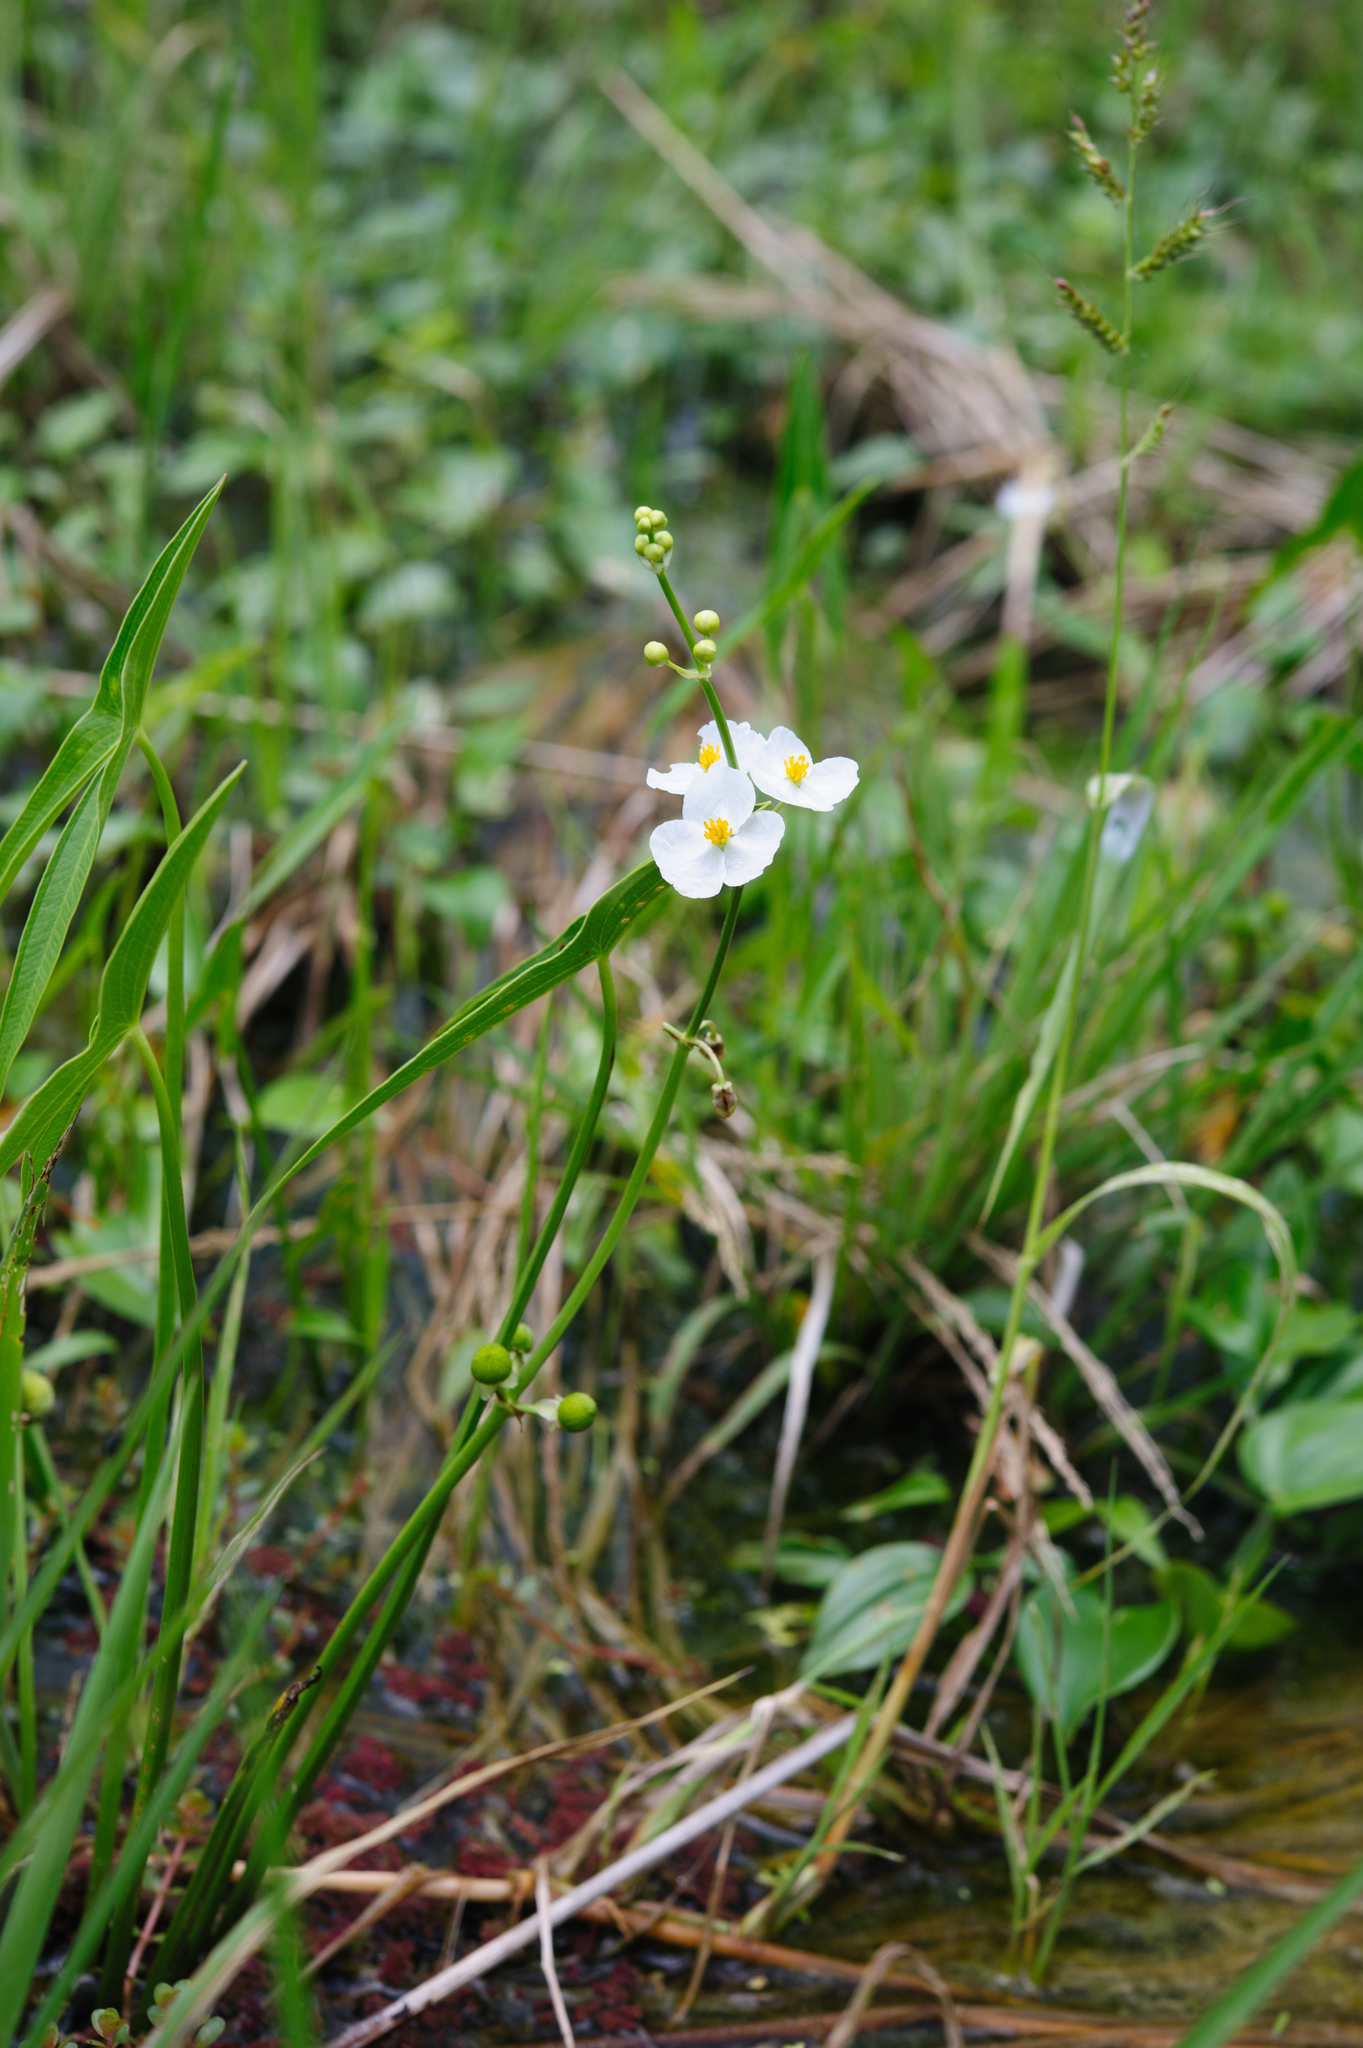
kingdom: Plantae
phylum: Tracheophyta
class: Liliopsida
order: Alismatales
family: Alismataceae
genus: Sagittaria
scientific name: Sagittaria trifolia
